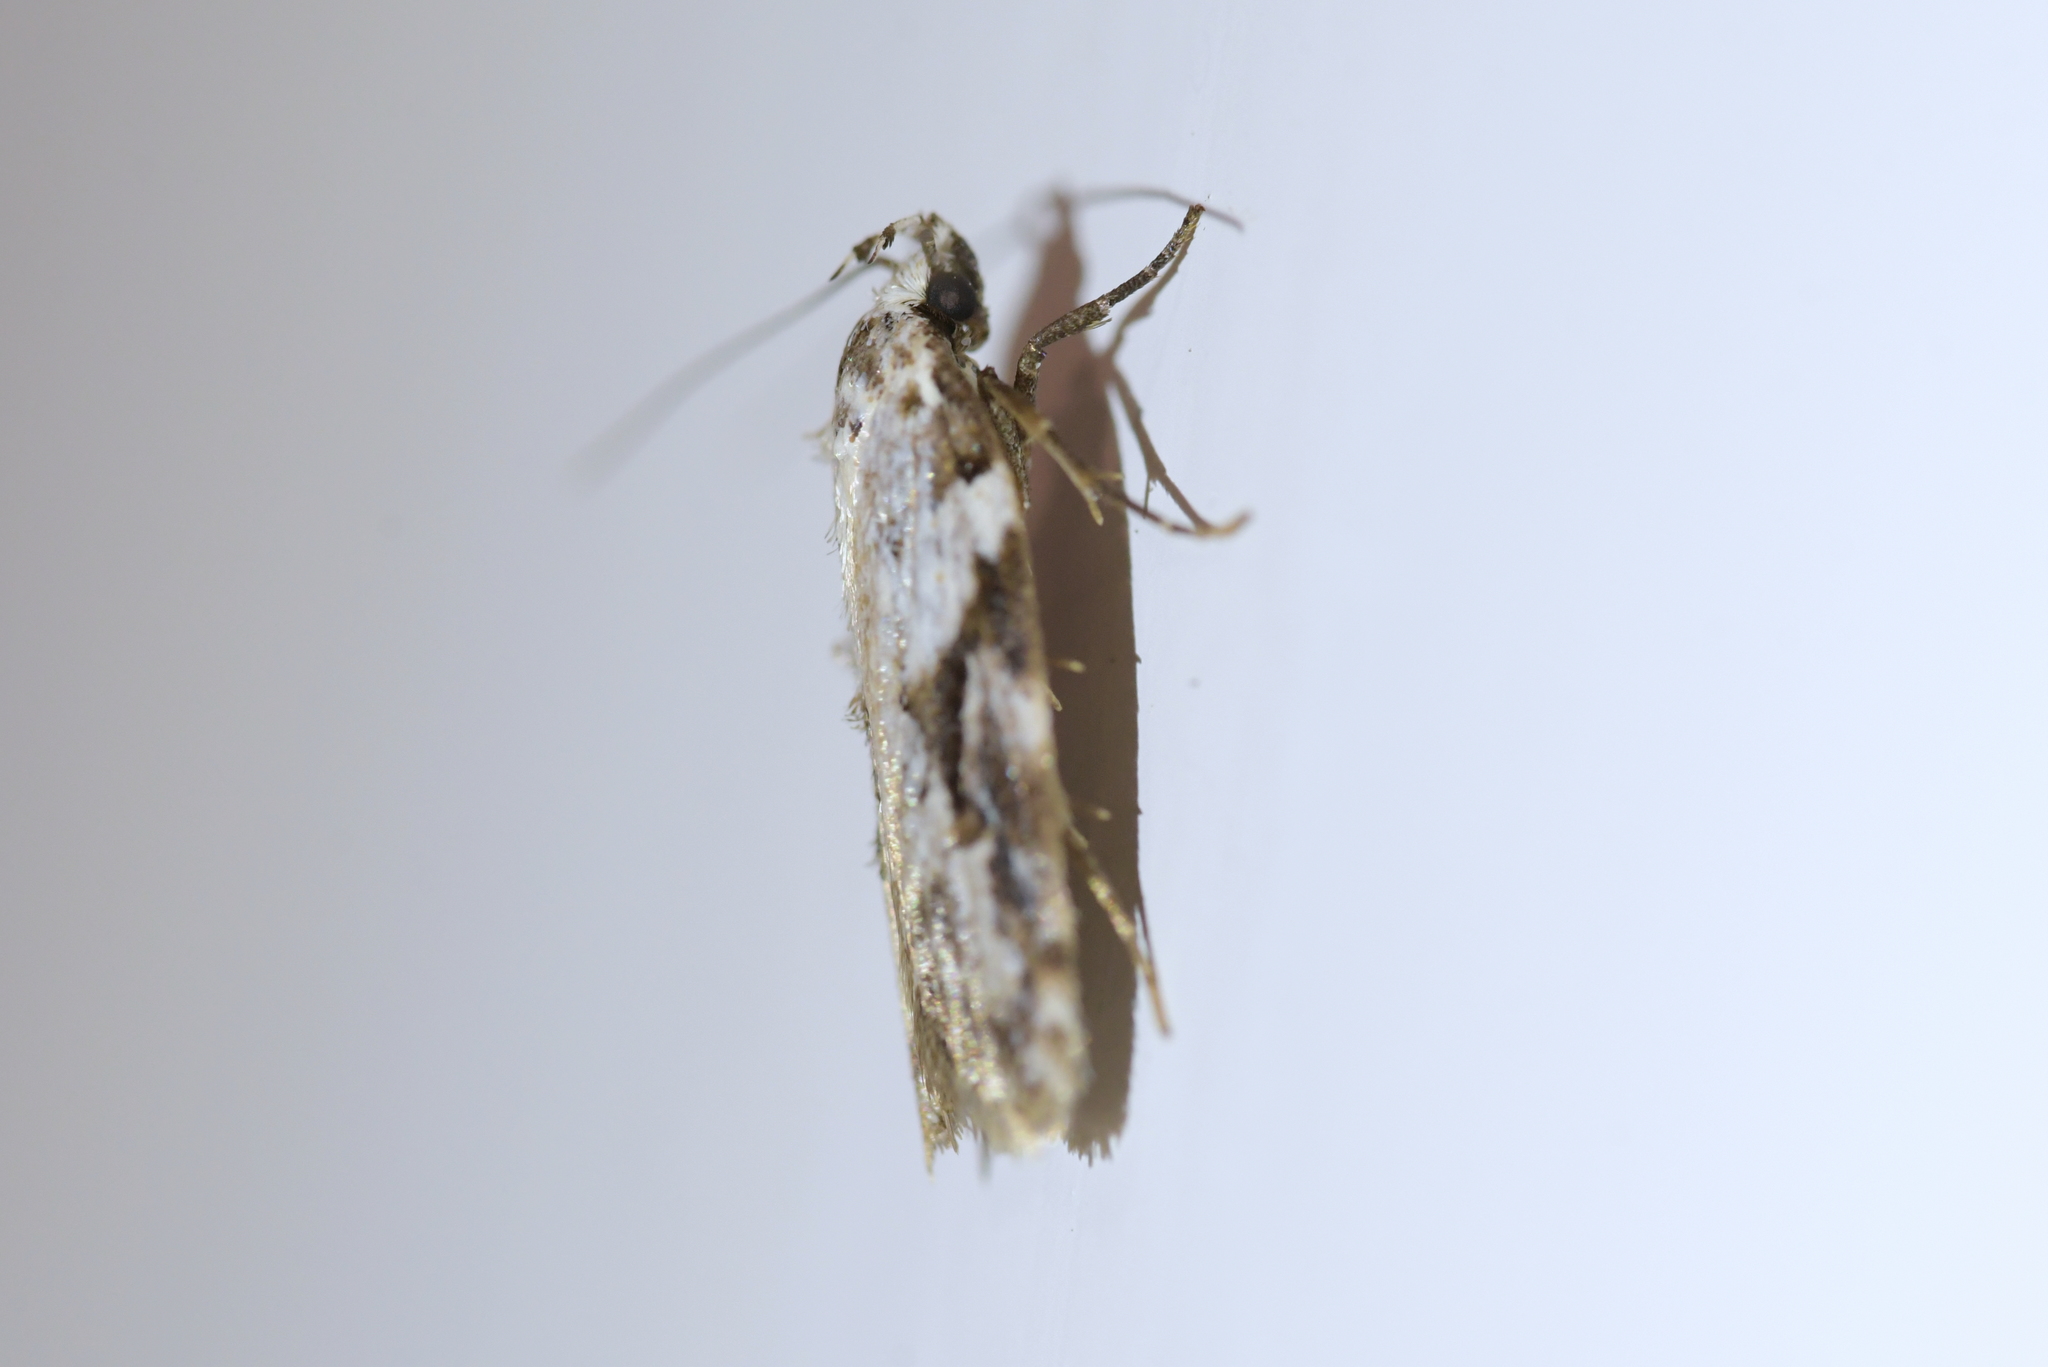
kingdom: Animalia
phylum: Arthropoda
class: Insecta
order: Lepidoptera
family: Oecophoridae
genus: Izatha
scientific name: Izatha mesoschista
